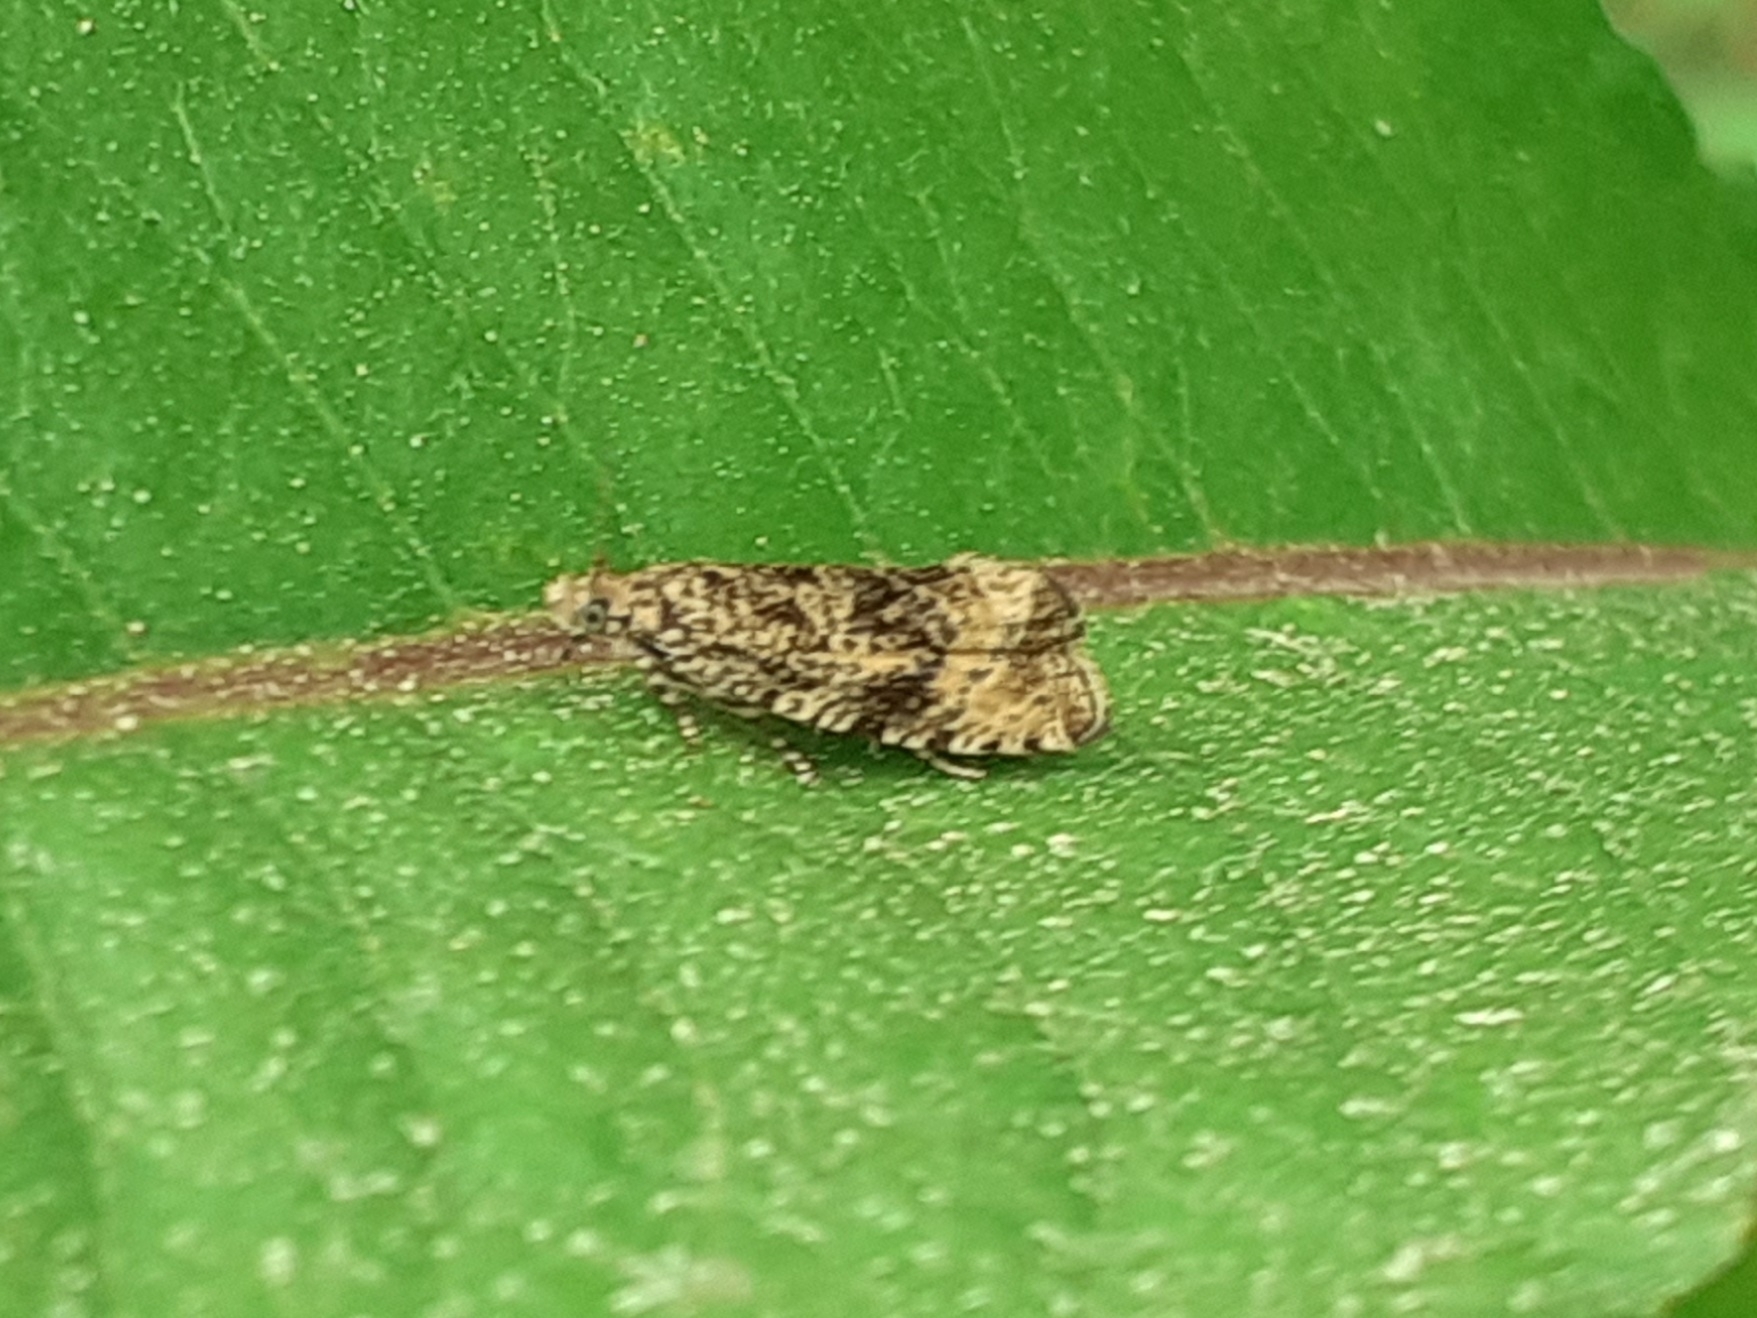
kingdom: Animalia
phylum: Arthropoda
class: Insecta
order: Lepidoptera
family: Tortricidae
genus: Syricoris
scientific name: Syricoris lacunana
